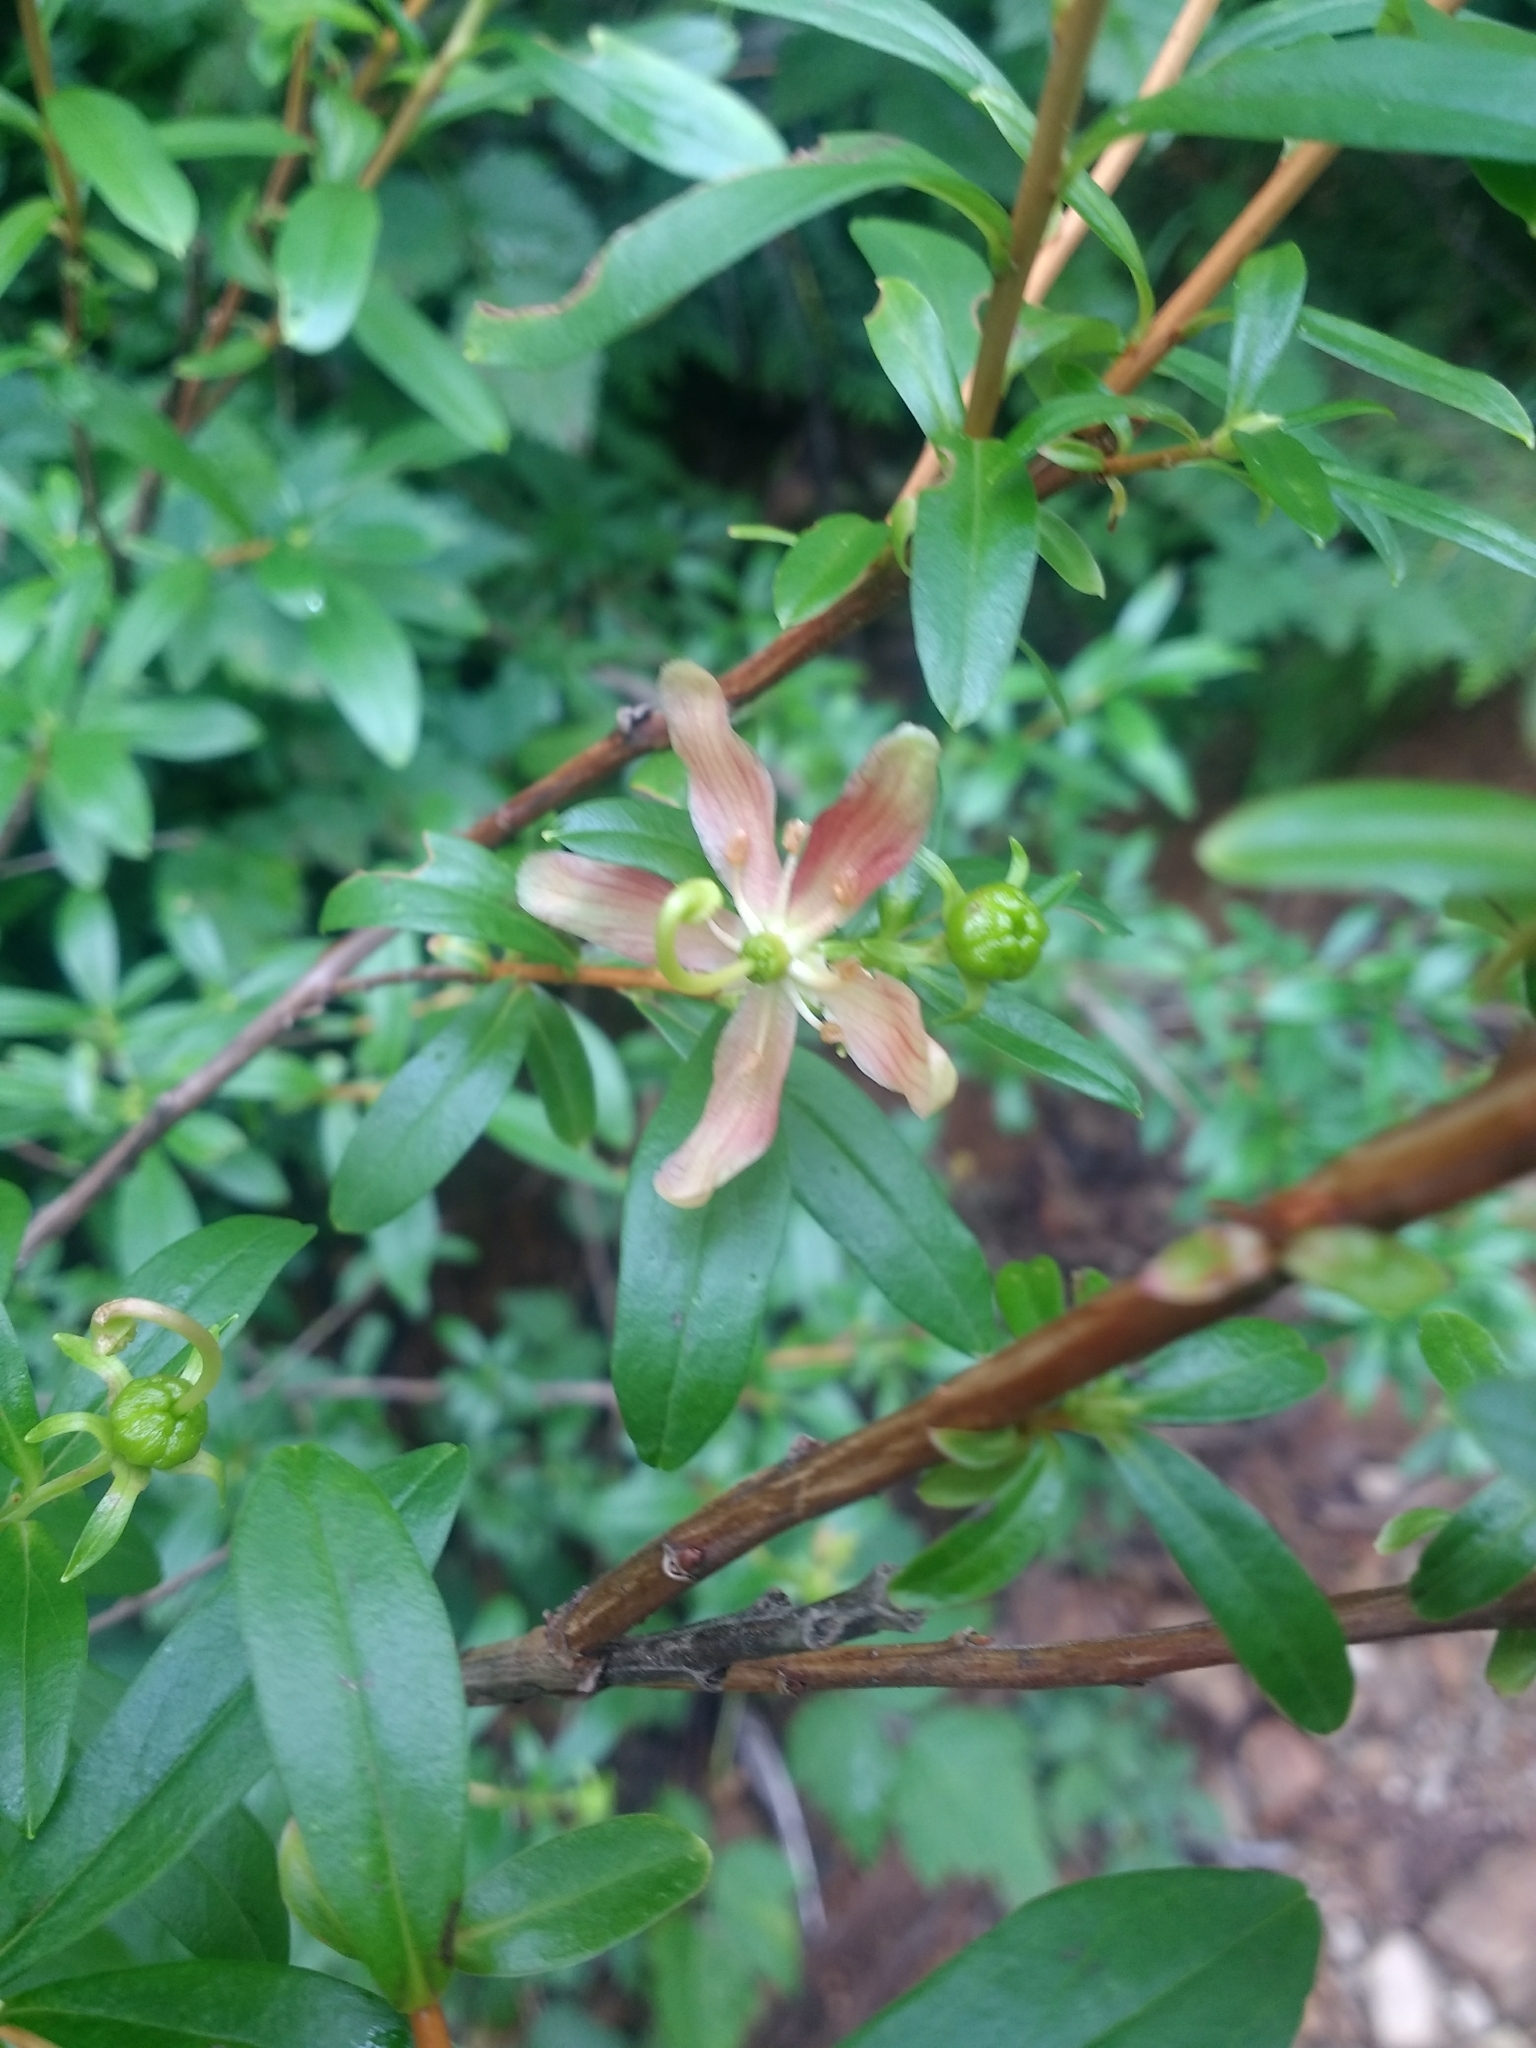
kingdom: Plantae
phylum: Tracheophyta
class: Magnoliopsida
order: Ericales
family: Ericaceae
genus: Elliottia
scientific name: Elliottia pyroliflora
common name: Copperbush
